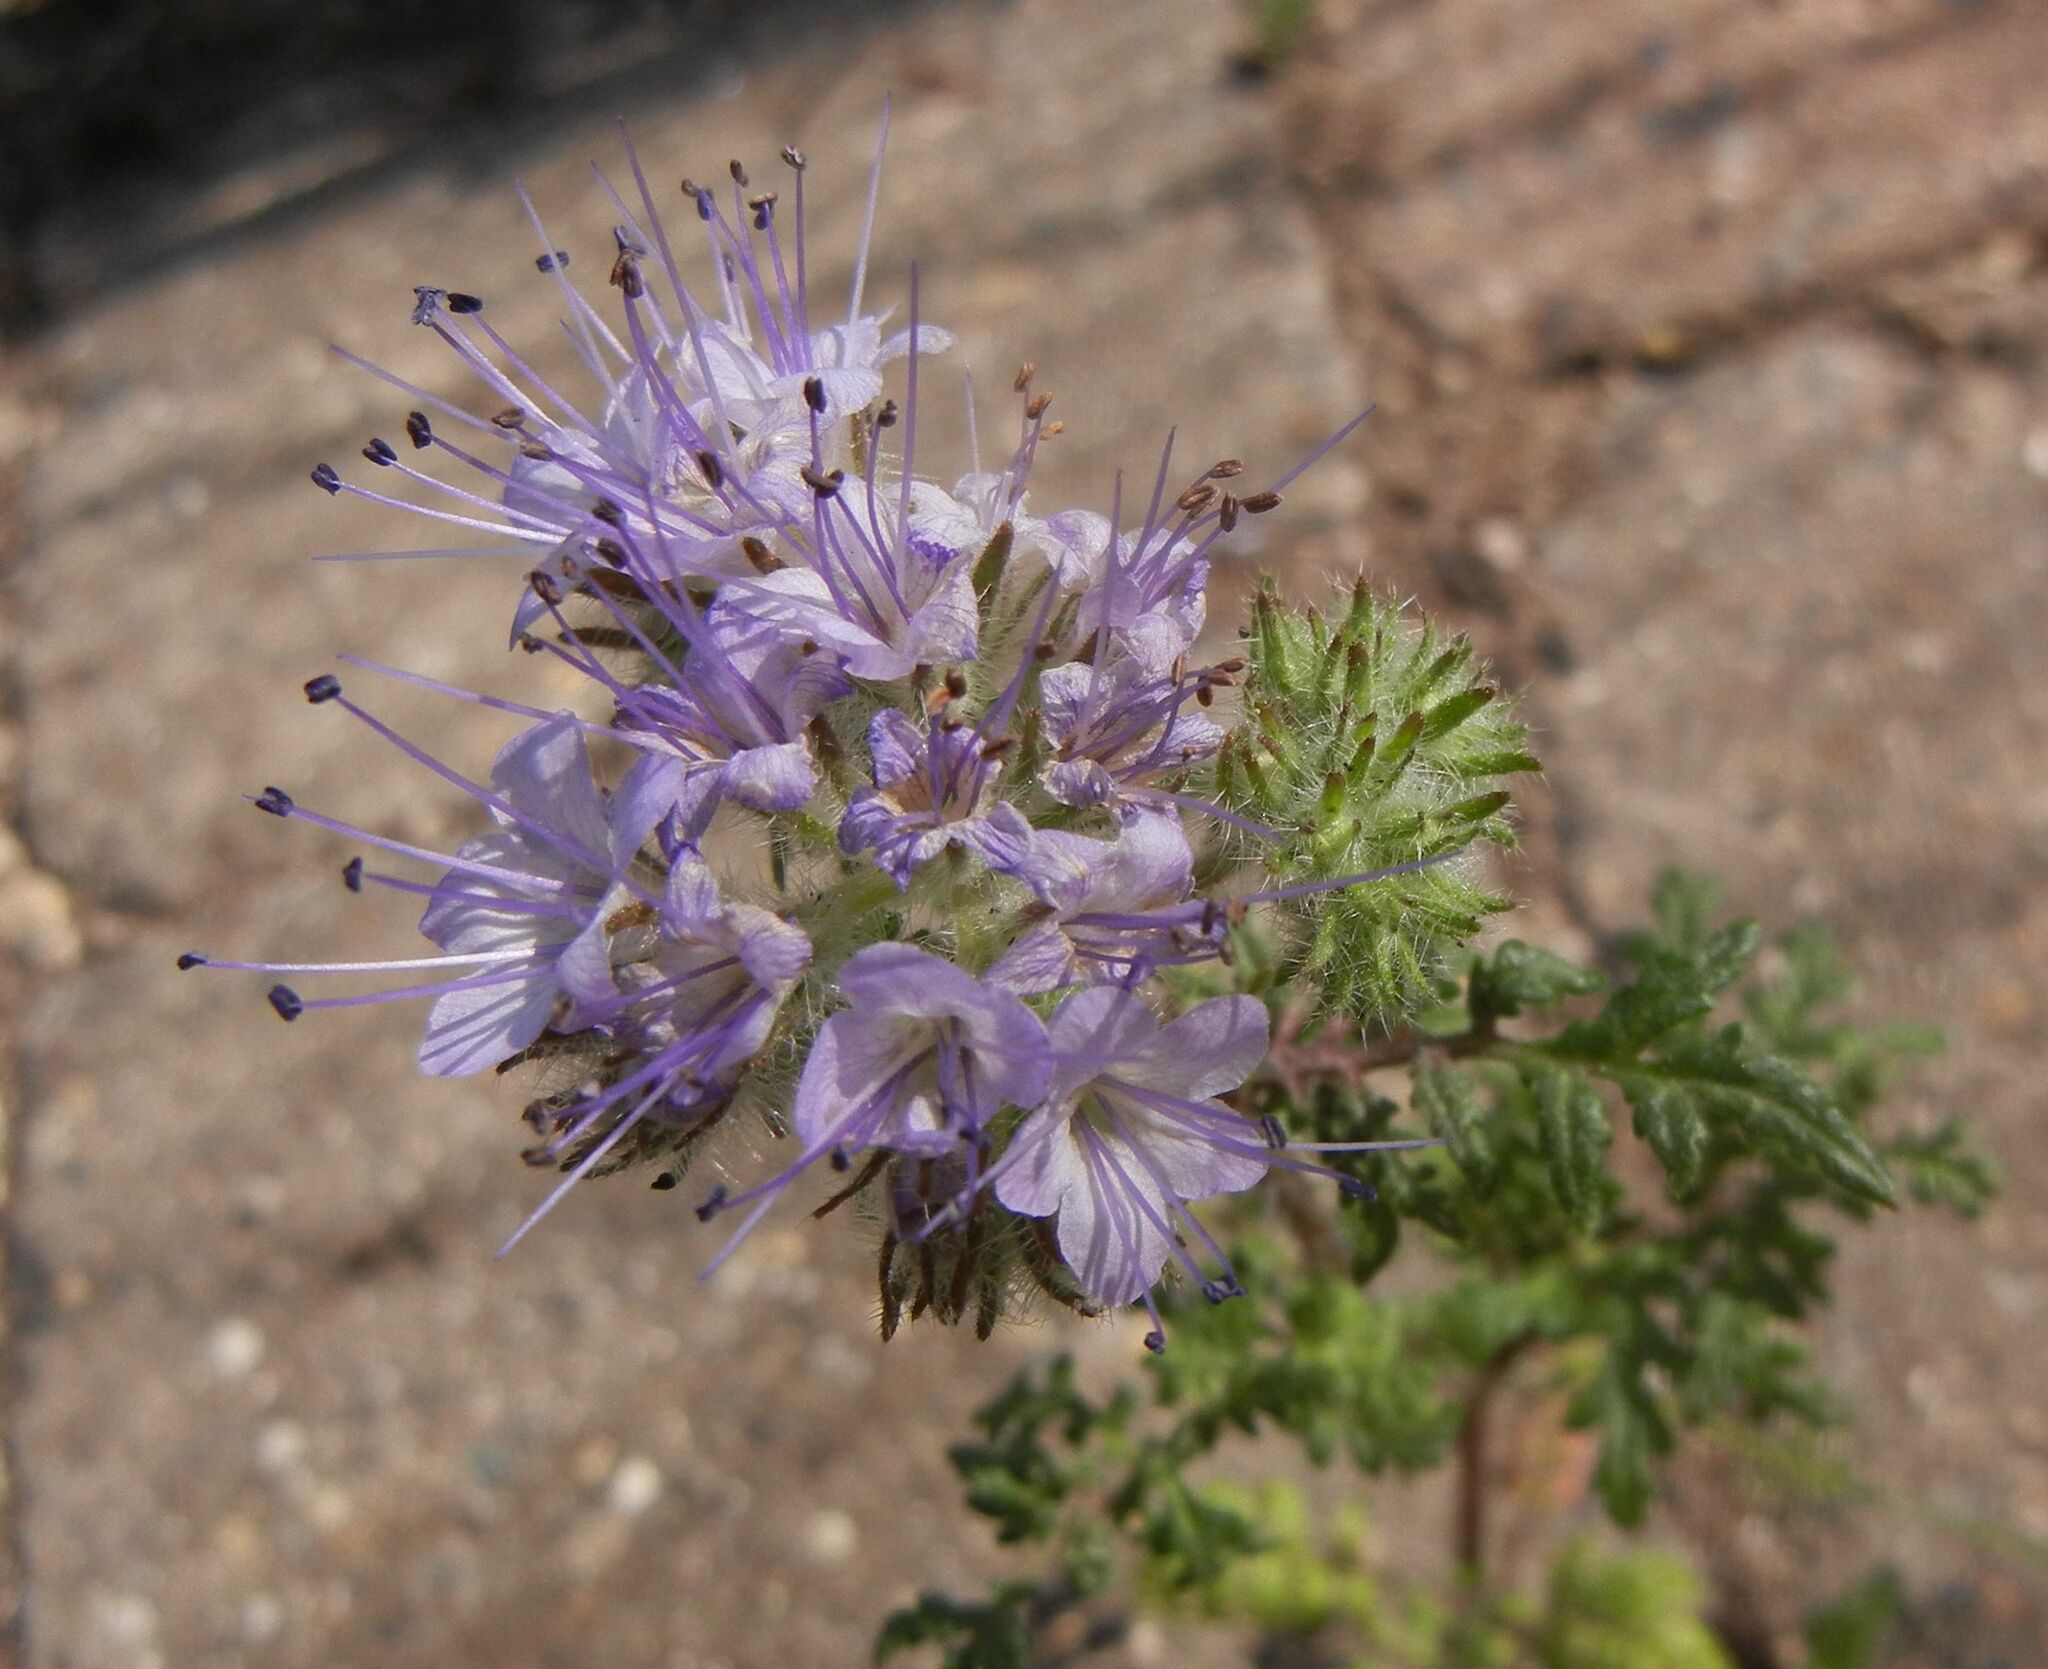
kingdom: Plantae
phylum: Tracheophyta
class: Magnoliopsida
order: Boraginales
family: Hydrophyllaceae
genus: Phacelia
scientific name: Phacelia tanacetifolia
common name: Phacelia
